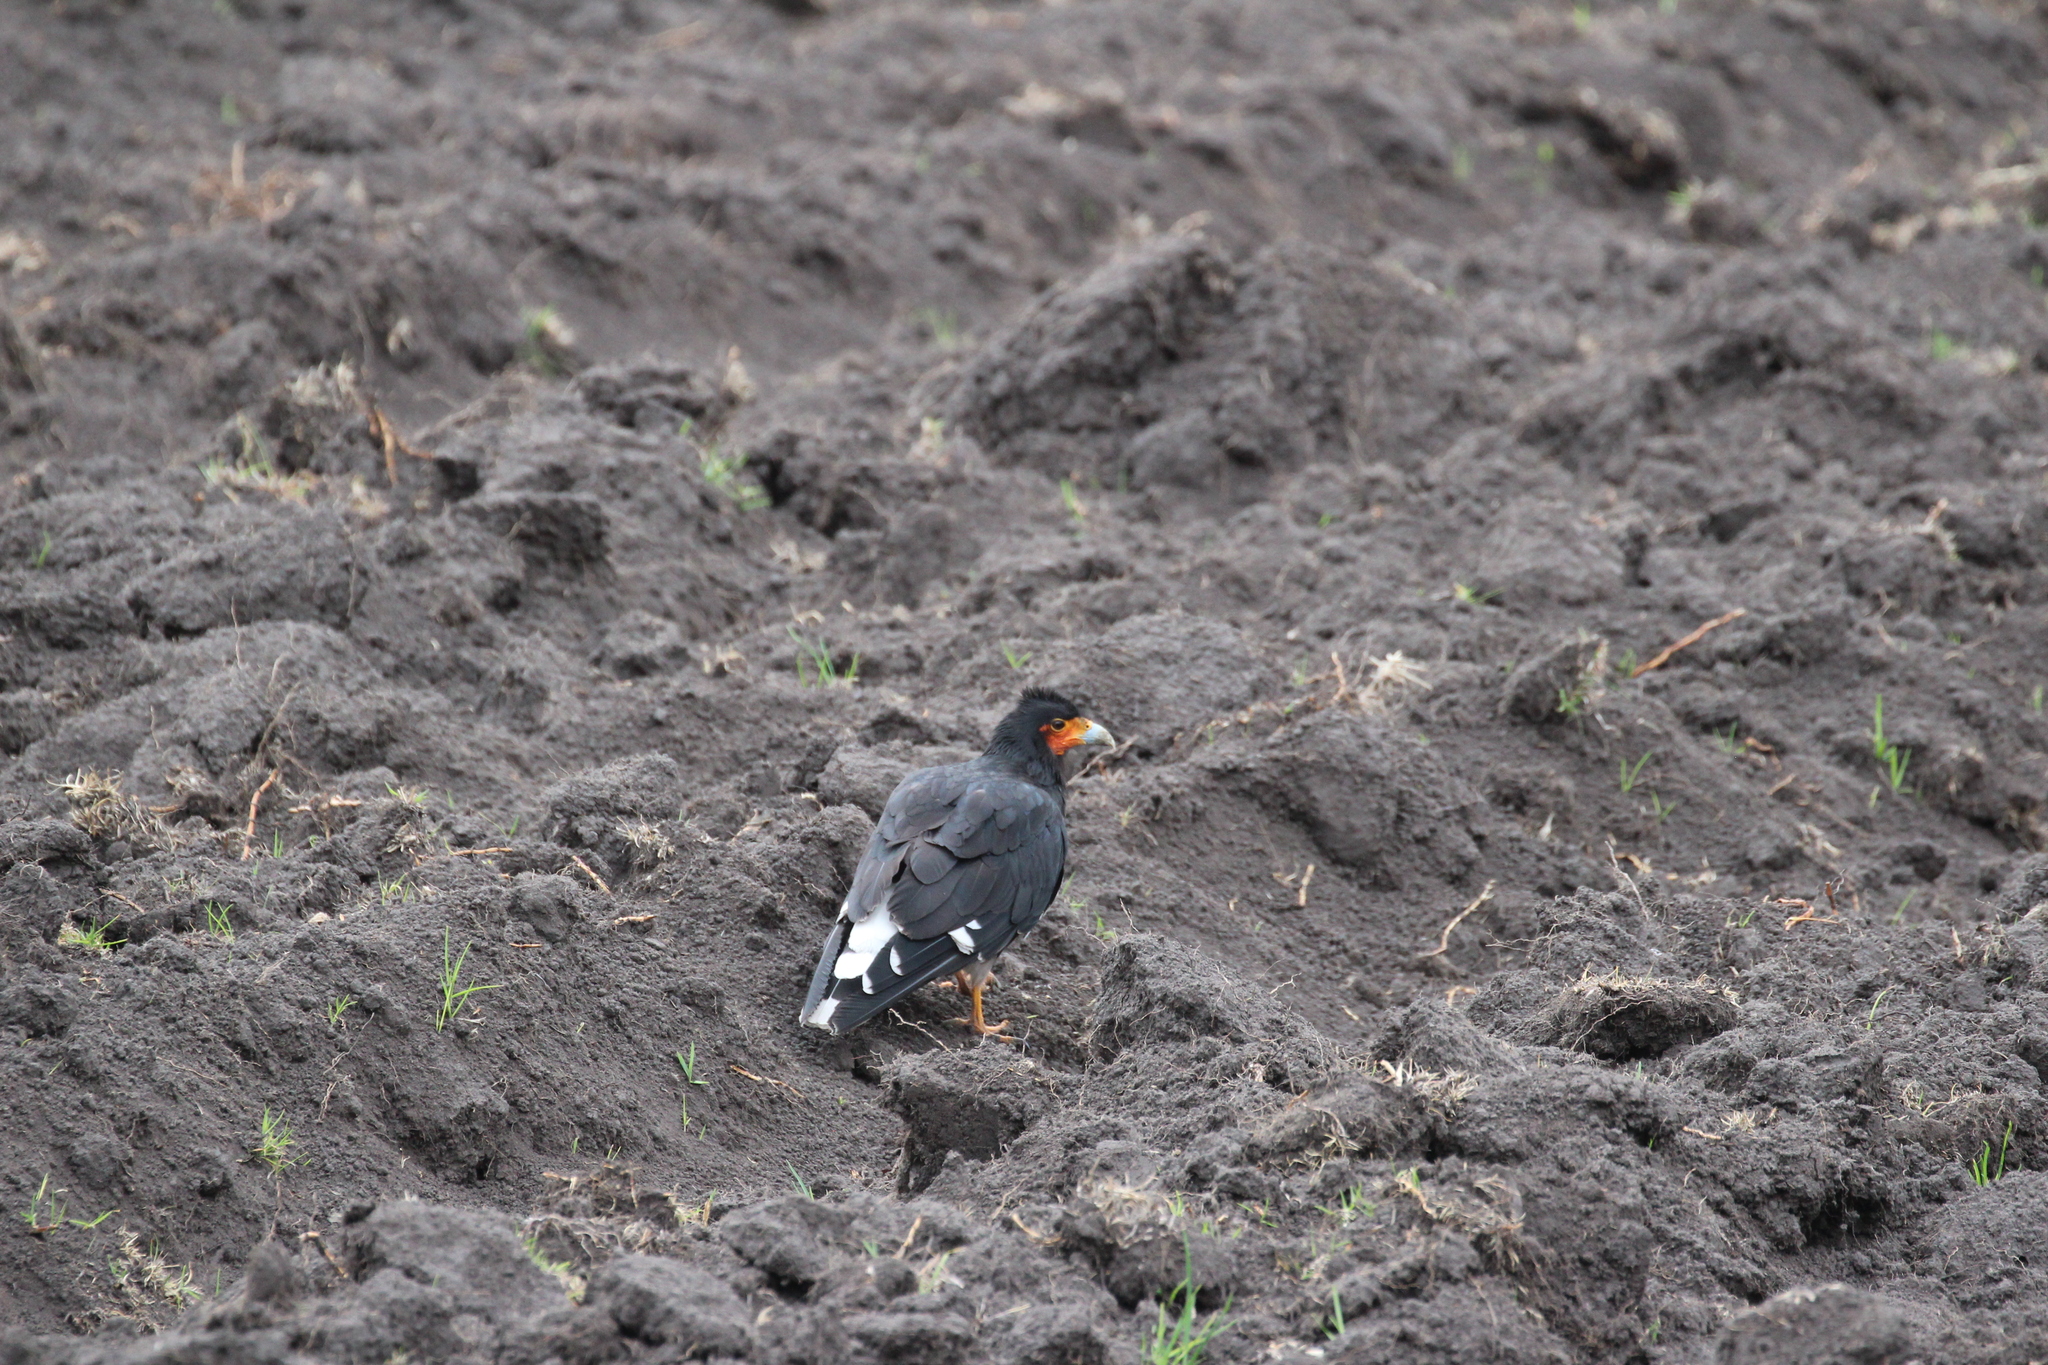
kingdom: Animalia
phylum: Chordata
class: Aves
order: Falconiformes
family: Falconidae
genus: Daptrius
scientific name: Daptrius
